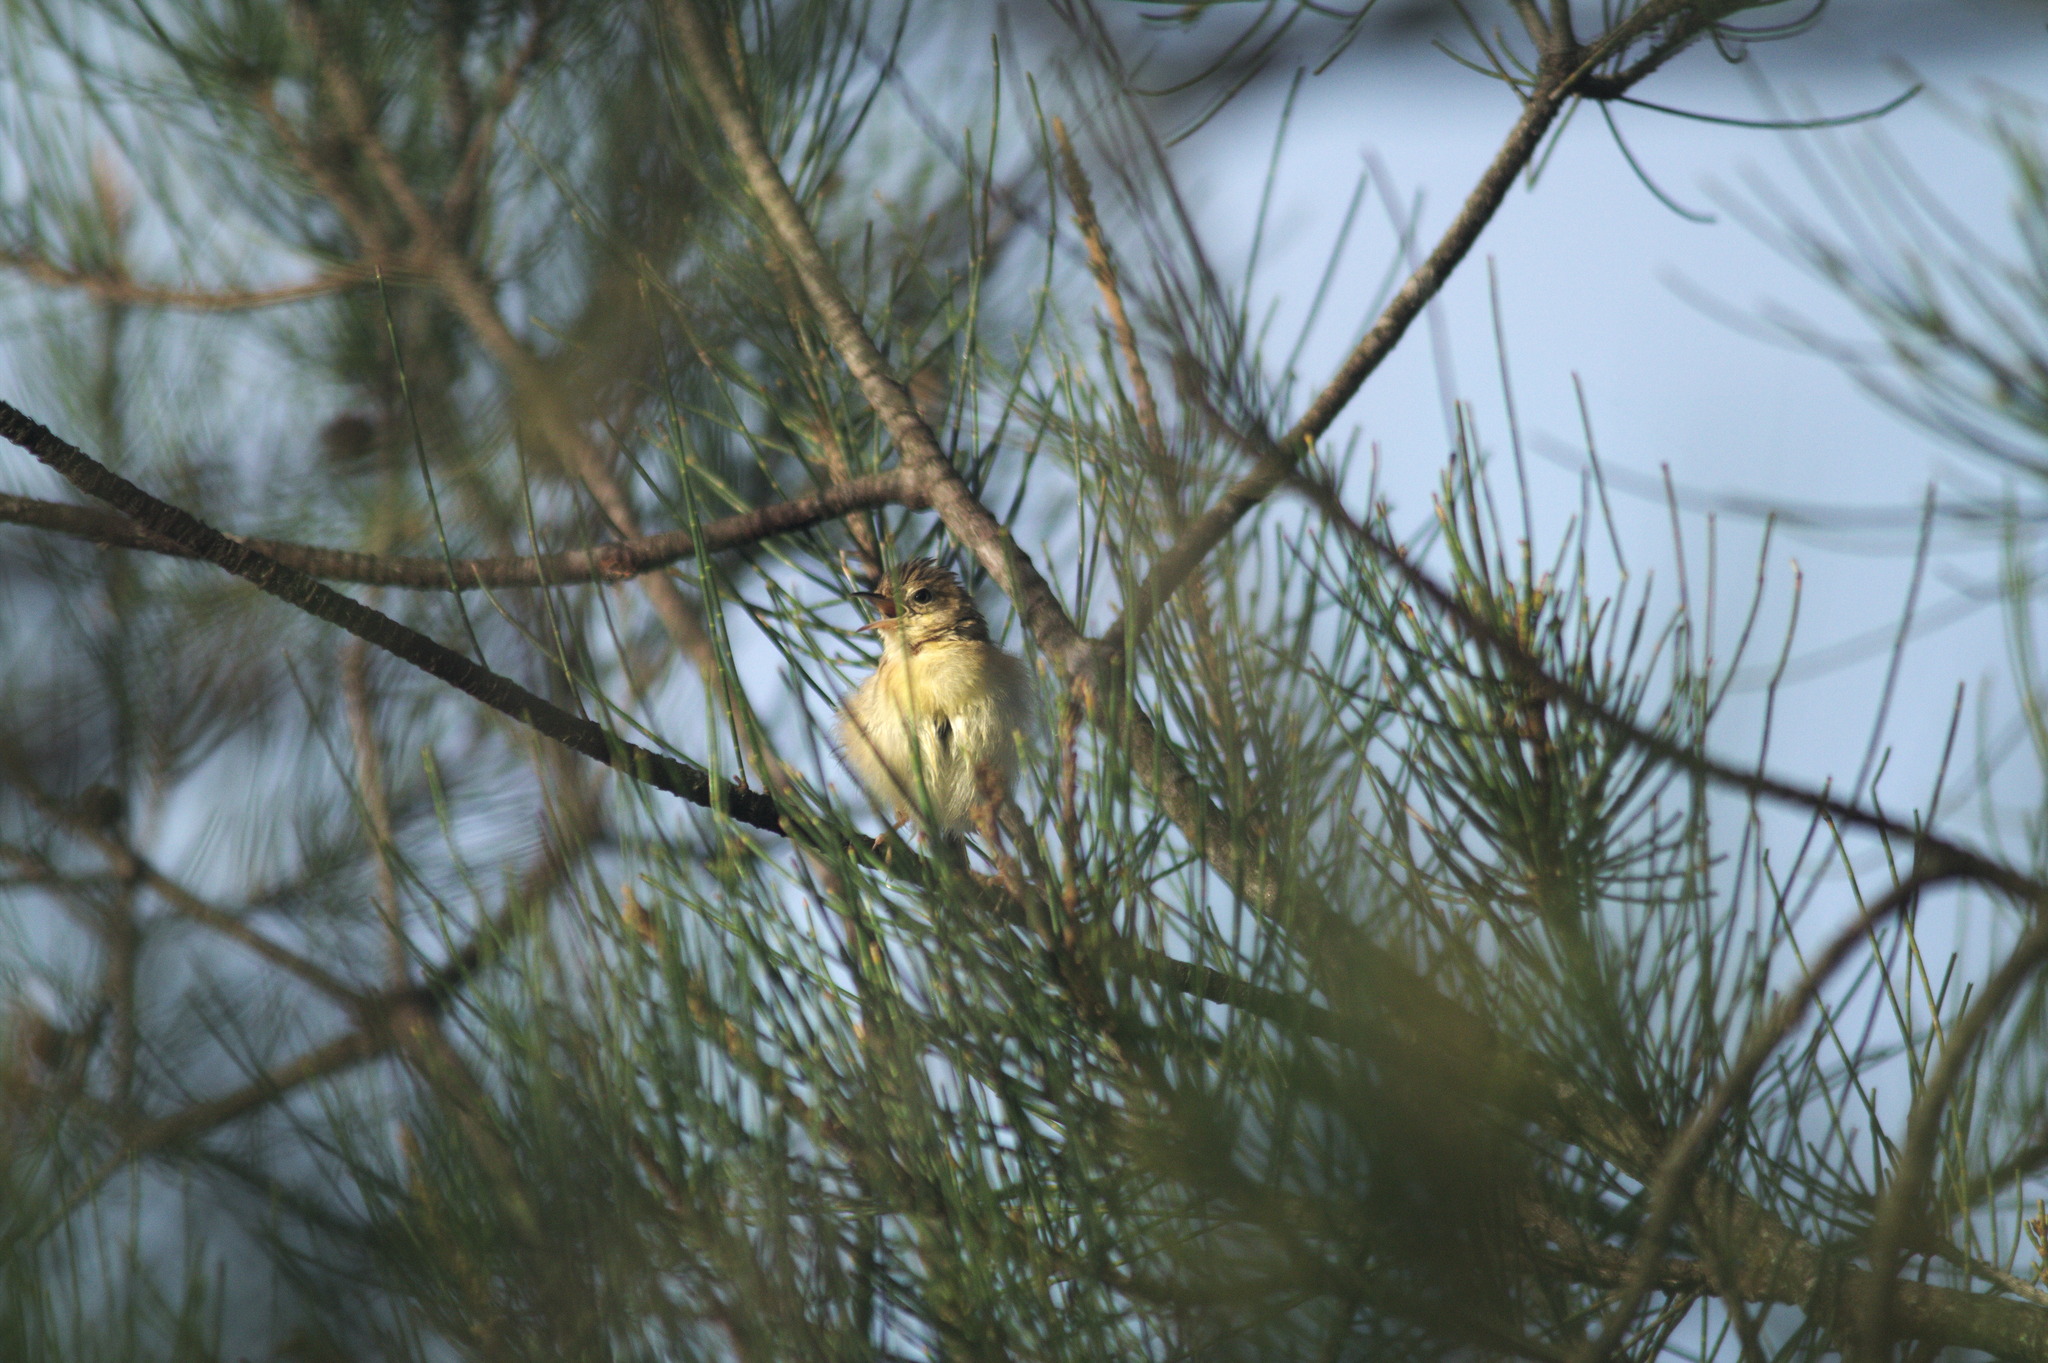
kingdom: Animalia
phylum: Chordata
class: Aves
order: Passeriformes
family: Cisticolidae
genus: Cisticola
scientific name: Cisticola exilis
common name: Golden-headed cisticola
